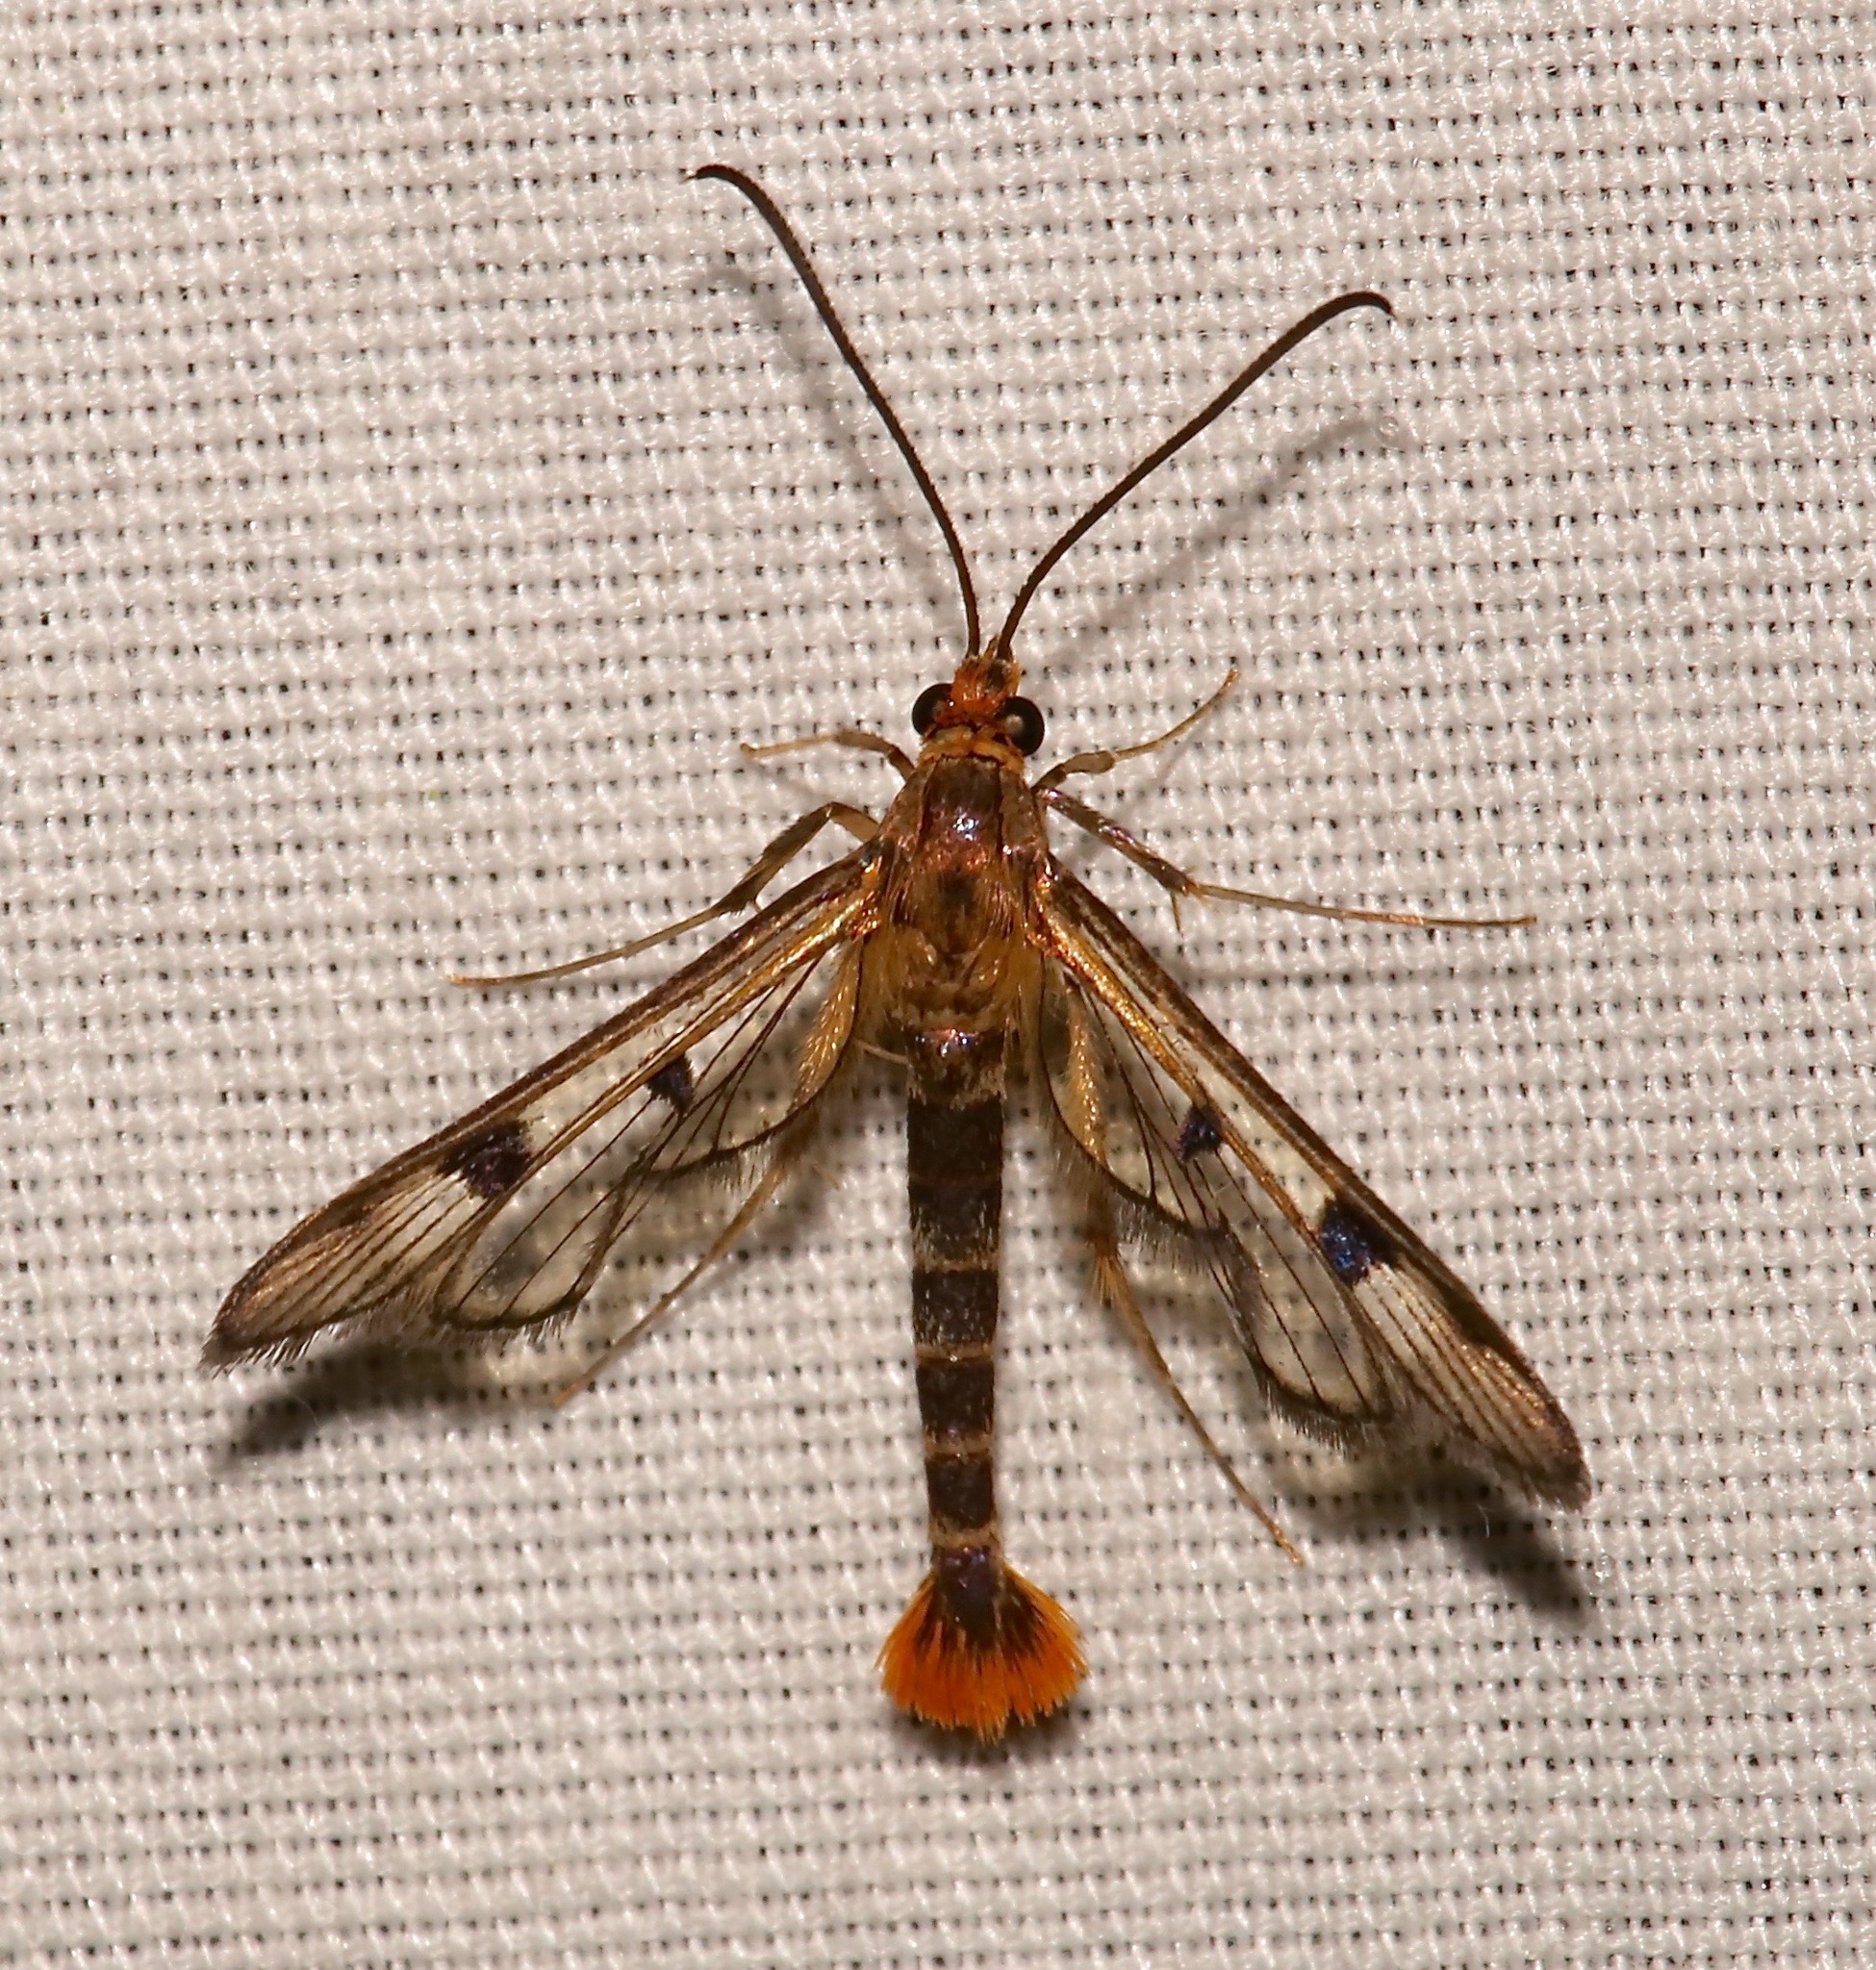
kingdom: Animalia
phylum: Arthropoda
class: Insecta
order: Lepidoptera
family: Sesiidae
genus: Synanthedon
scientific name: Synanthedon acerni
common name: Maple callus borer moth
